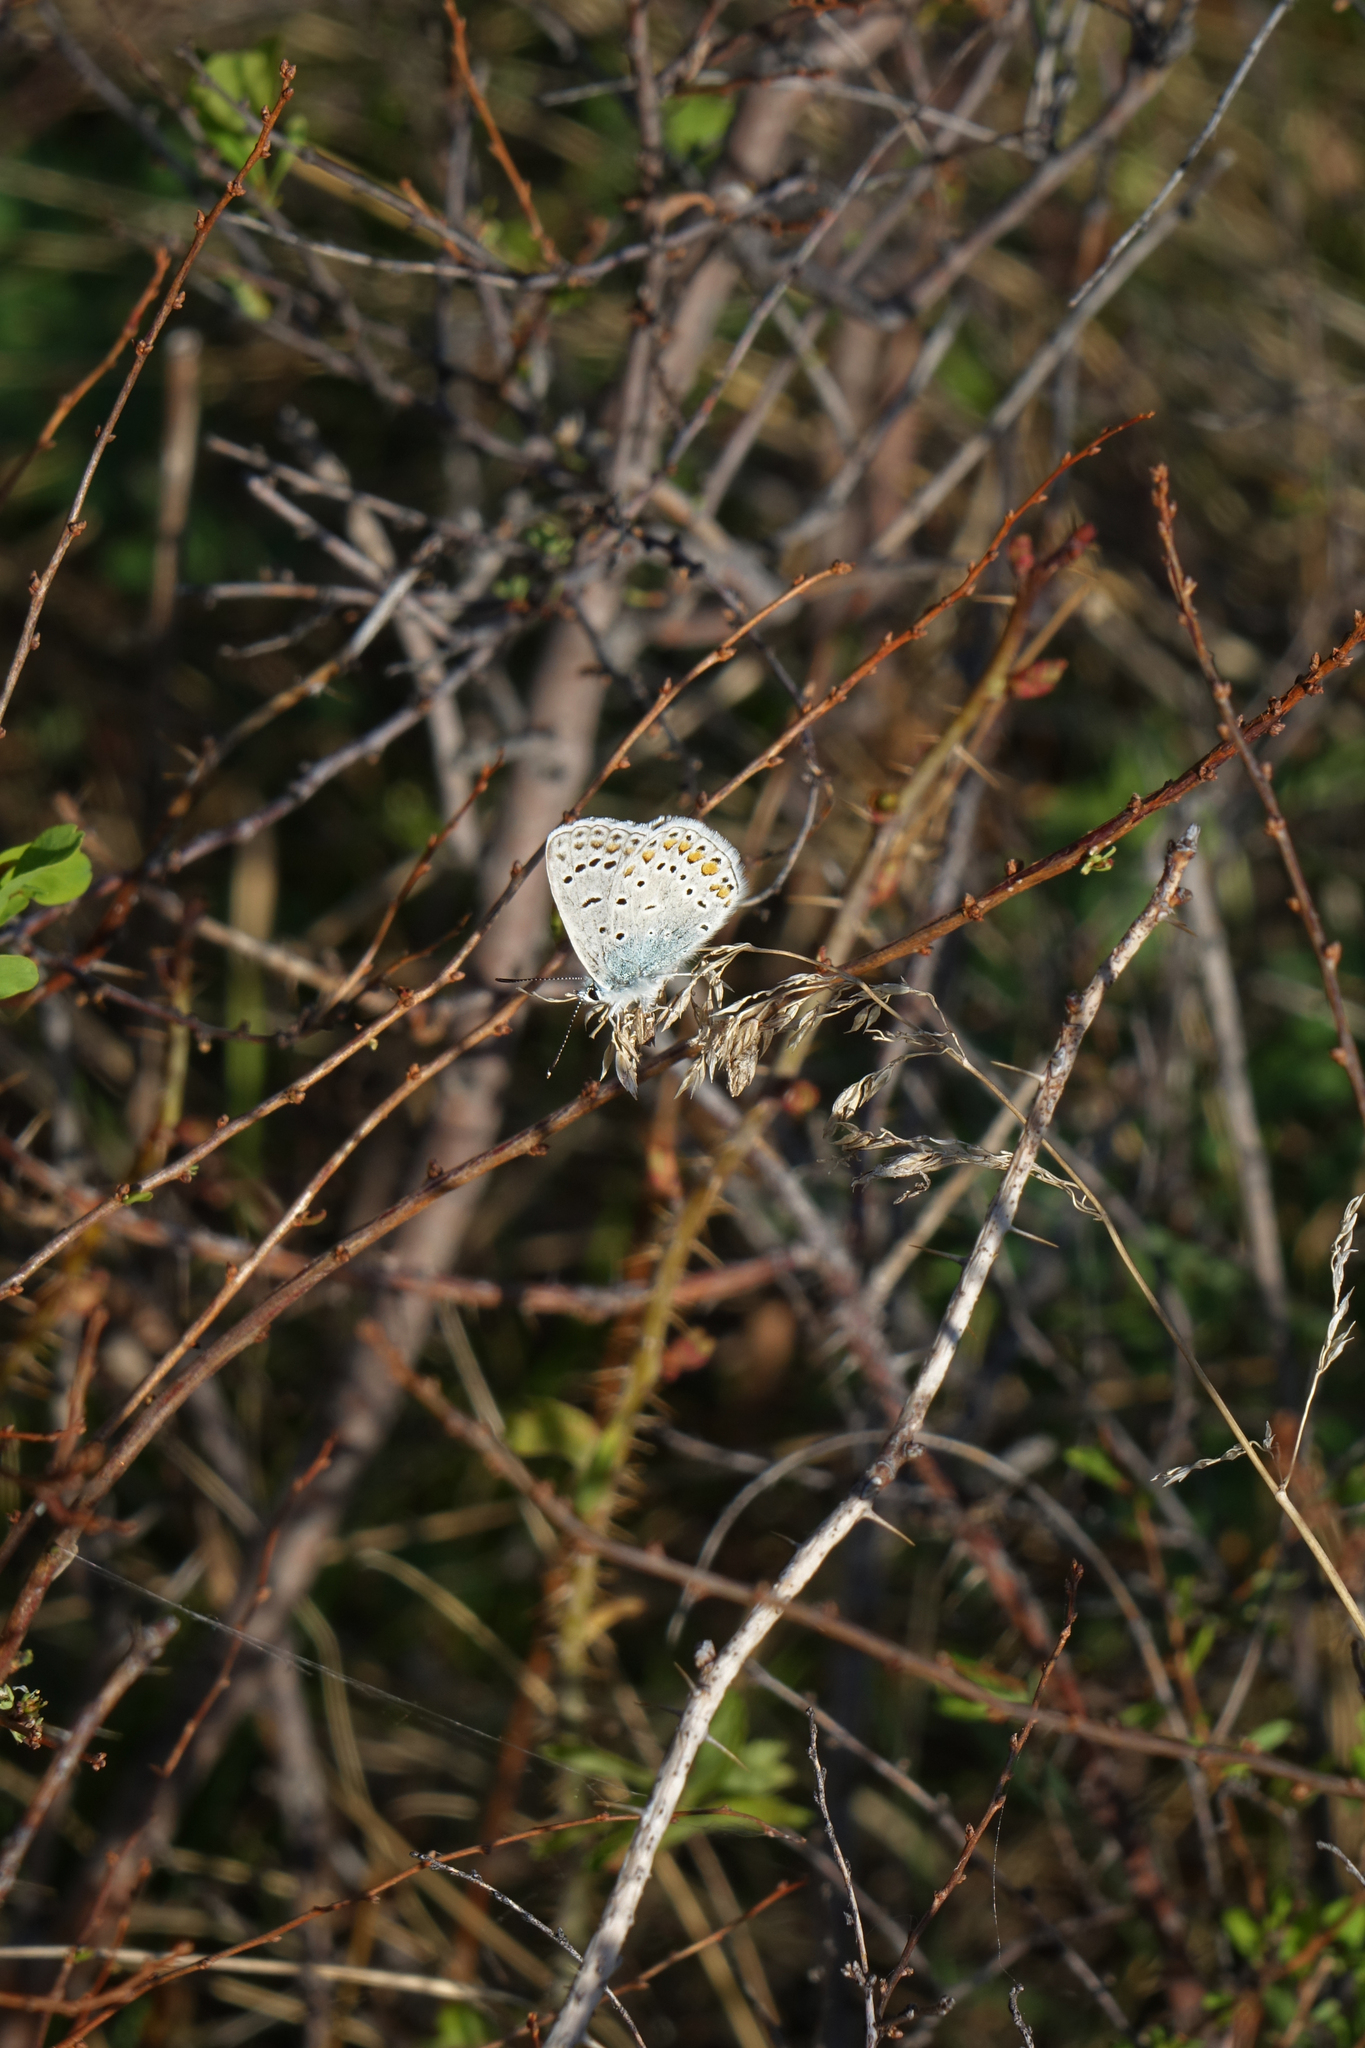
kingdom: Animalia
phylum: Arthropoda
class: Insecta
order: Lepidoptera
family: Lycaenidae
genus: Polyommatus
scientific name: Polyommatus icarus
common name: Common blue
